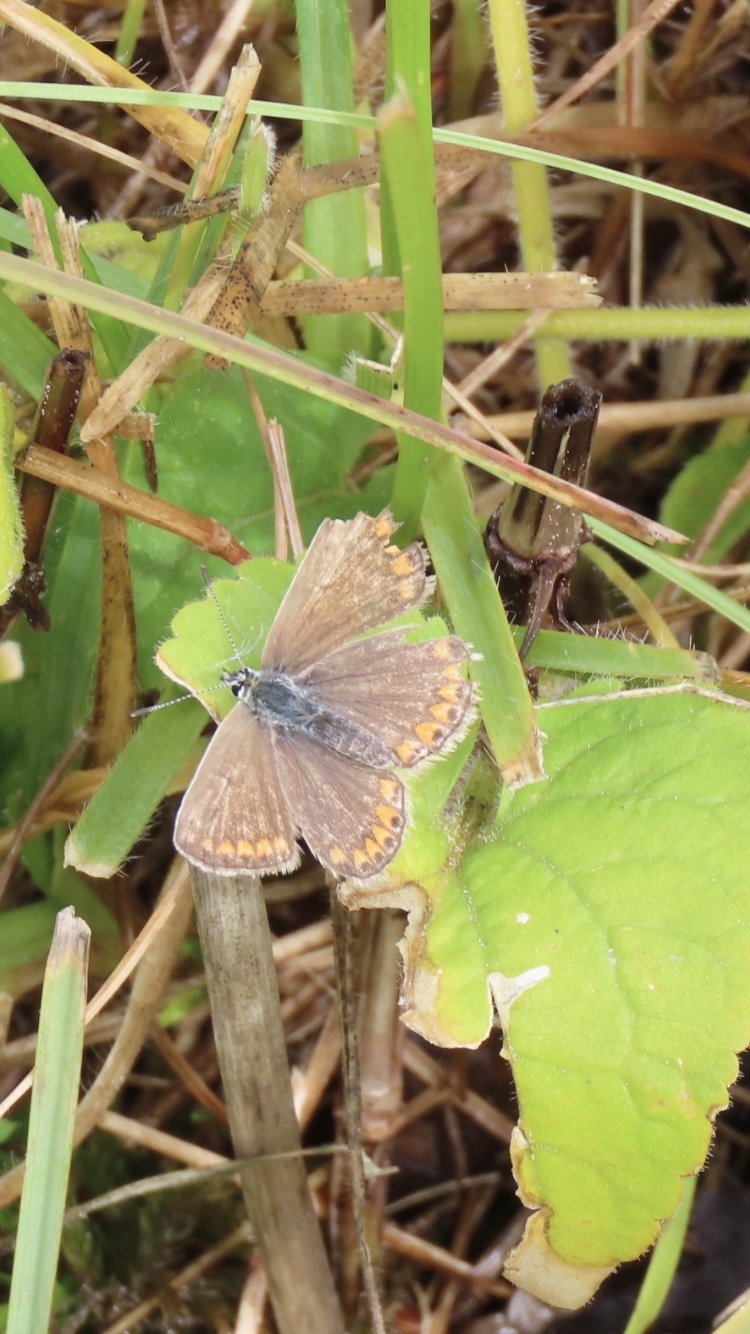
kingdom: Animalia
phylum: Arthropoda
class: Insecta
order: Lepidoptera
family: Lycaenidae
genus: Polyommatus
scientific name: Polyommatus icarus
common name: Common blue
